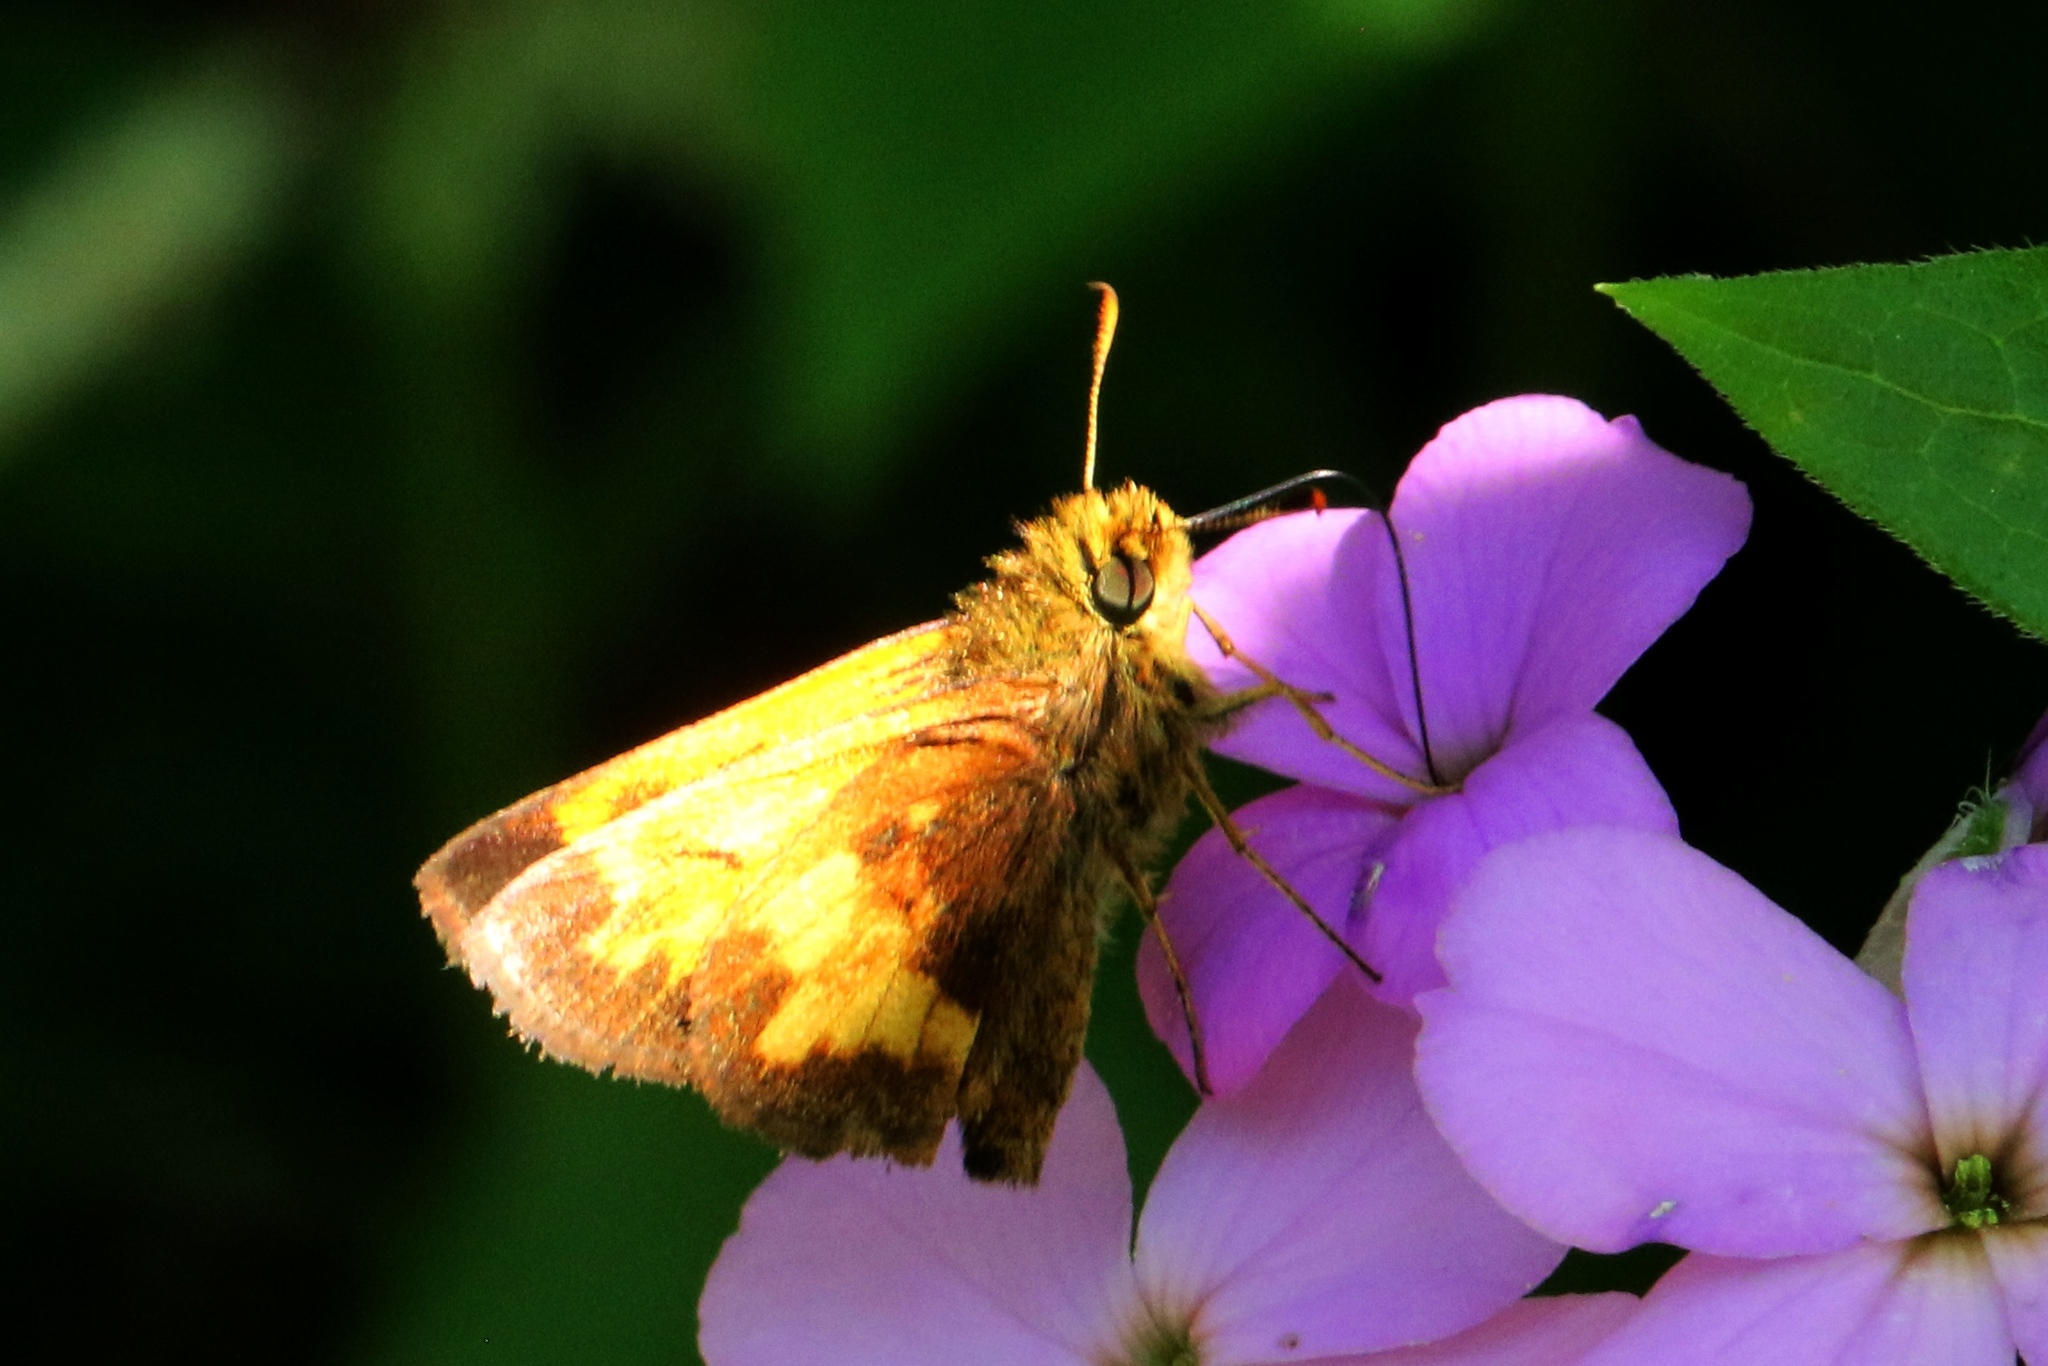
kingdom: Animalia
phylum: Arthropoda
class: Insecta
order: Lepidoptera
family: Hesperiidae
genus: Lon
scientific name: Lon hobomok
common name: Hobomok skipper
